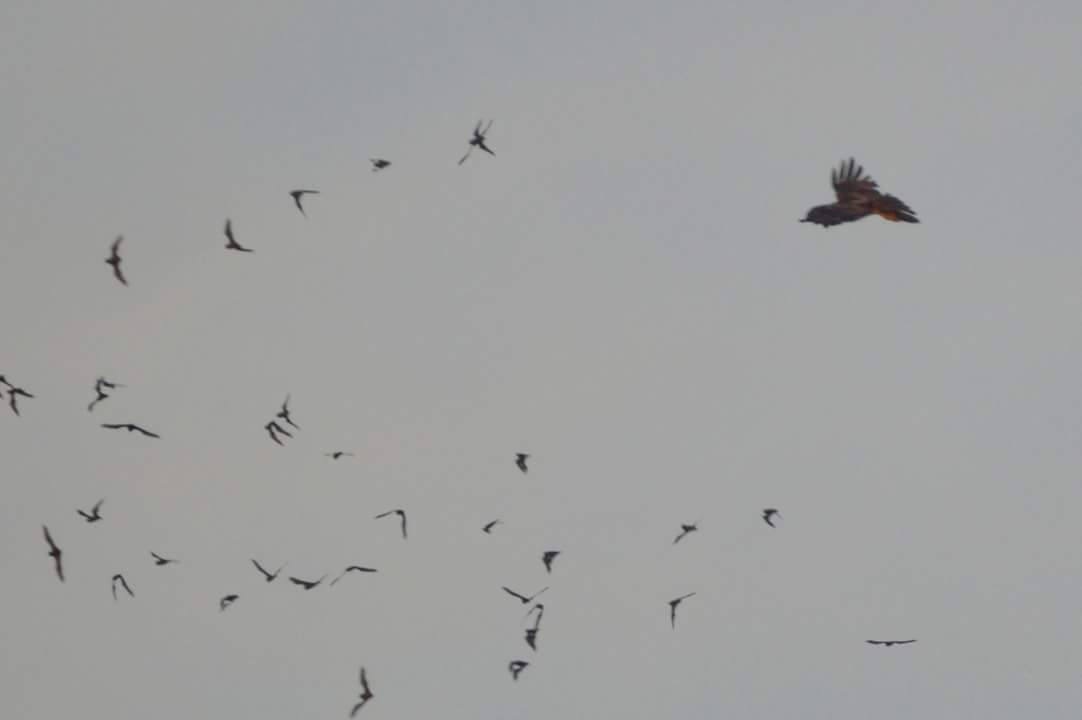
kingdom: Animalia
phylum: Chordata
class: Aves
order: Accipitriformes
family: Accipitridae
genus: Buteo
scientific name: Buteo jamaicensis
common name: Red-tailed hawk
